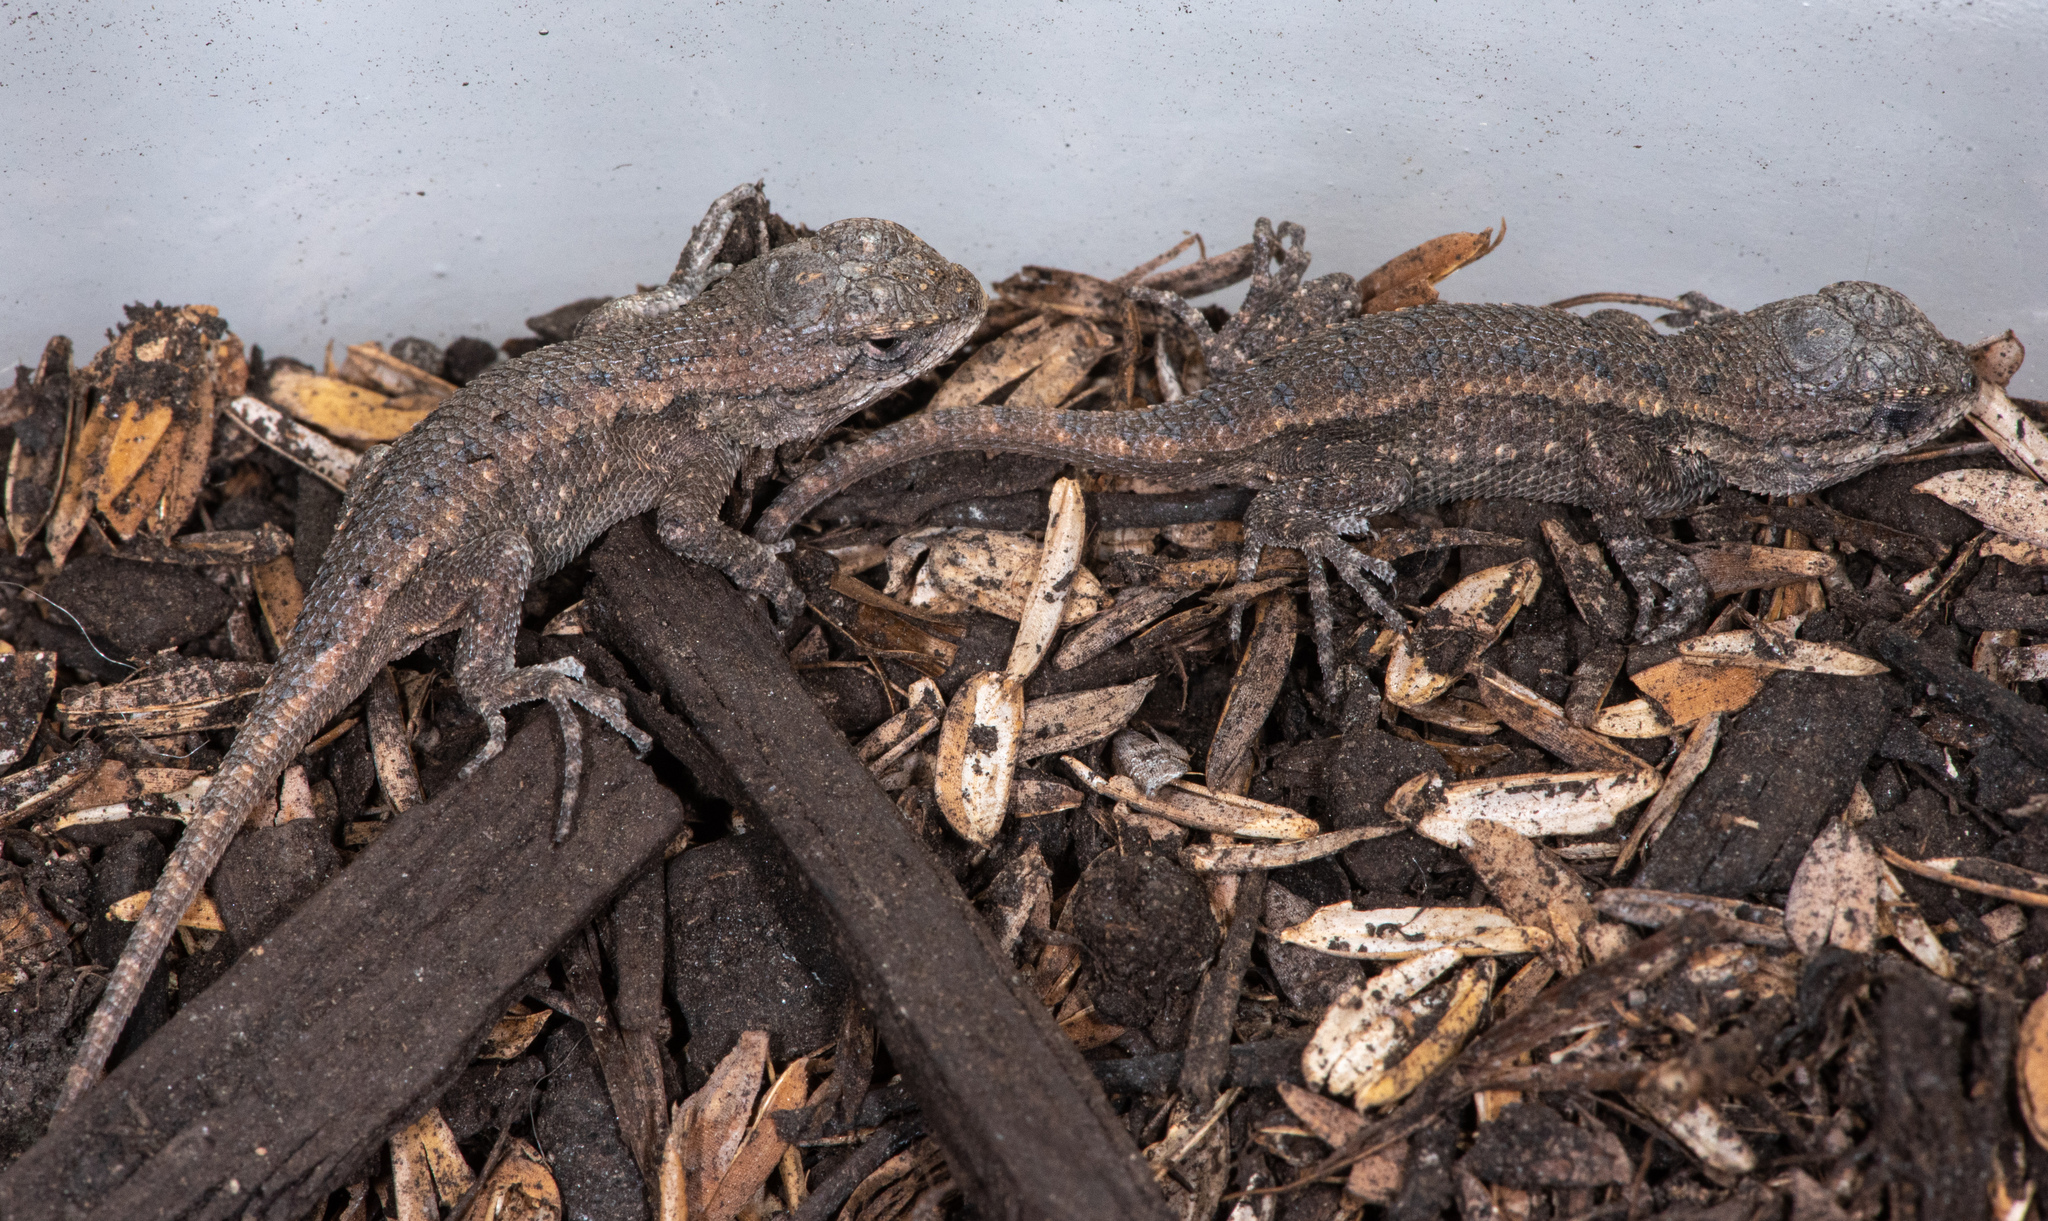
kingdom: Animalia
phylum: Chordata
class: Squamata
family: Phrynosomatidae
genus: Sceloporus
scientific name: Sceloporus occidentalis
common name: Western fence lizard
